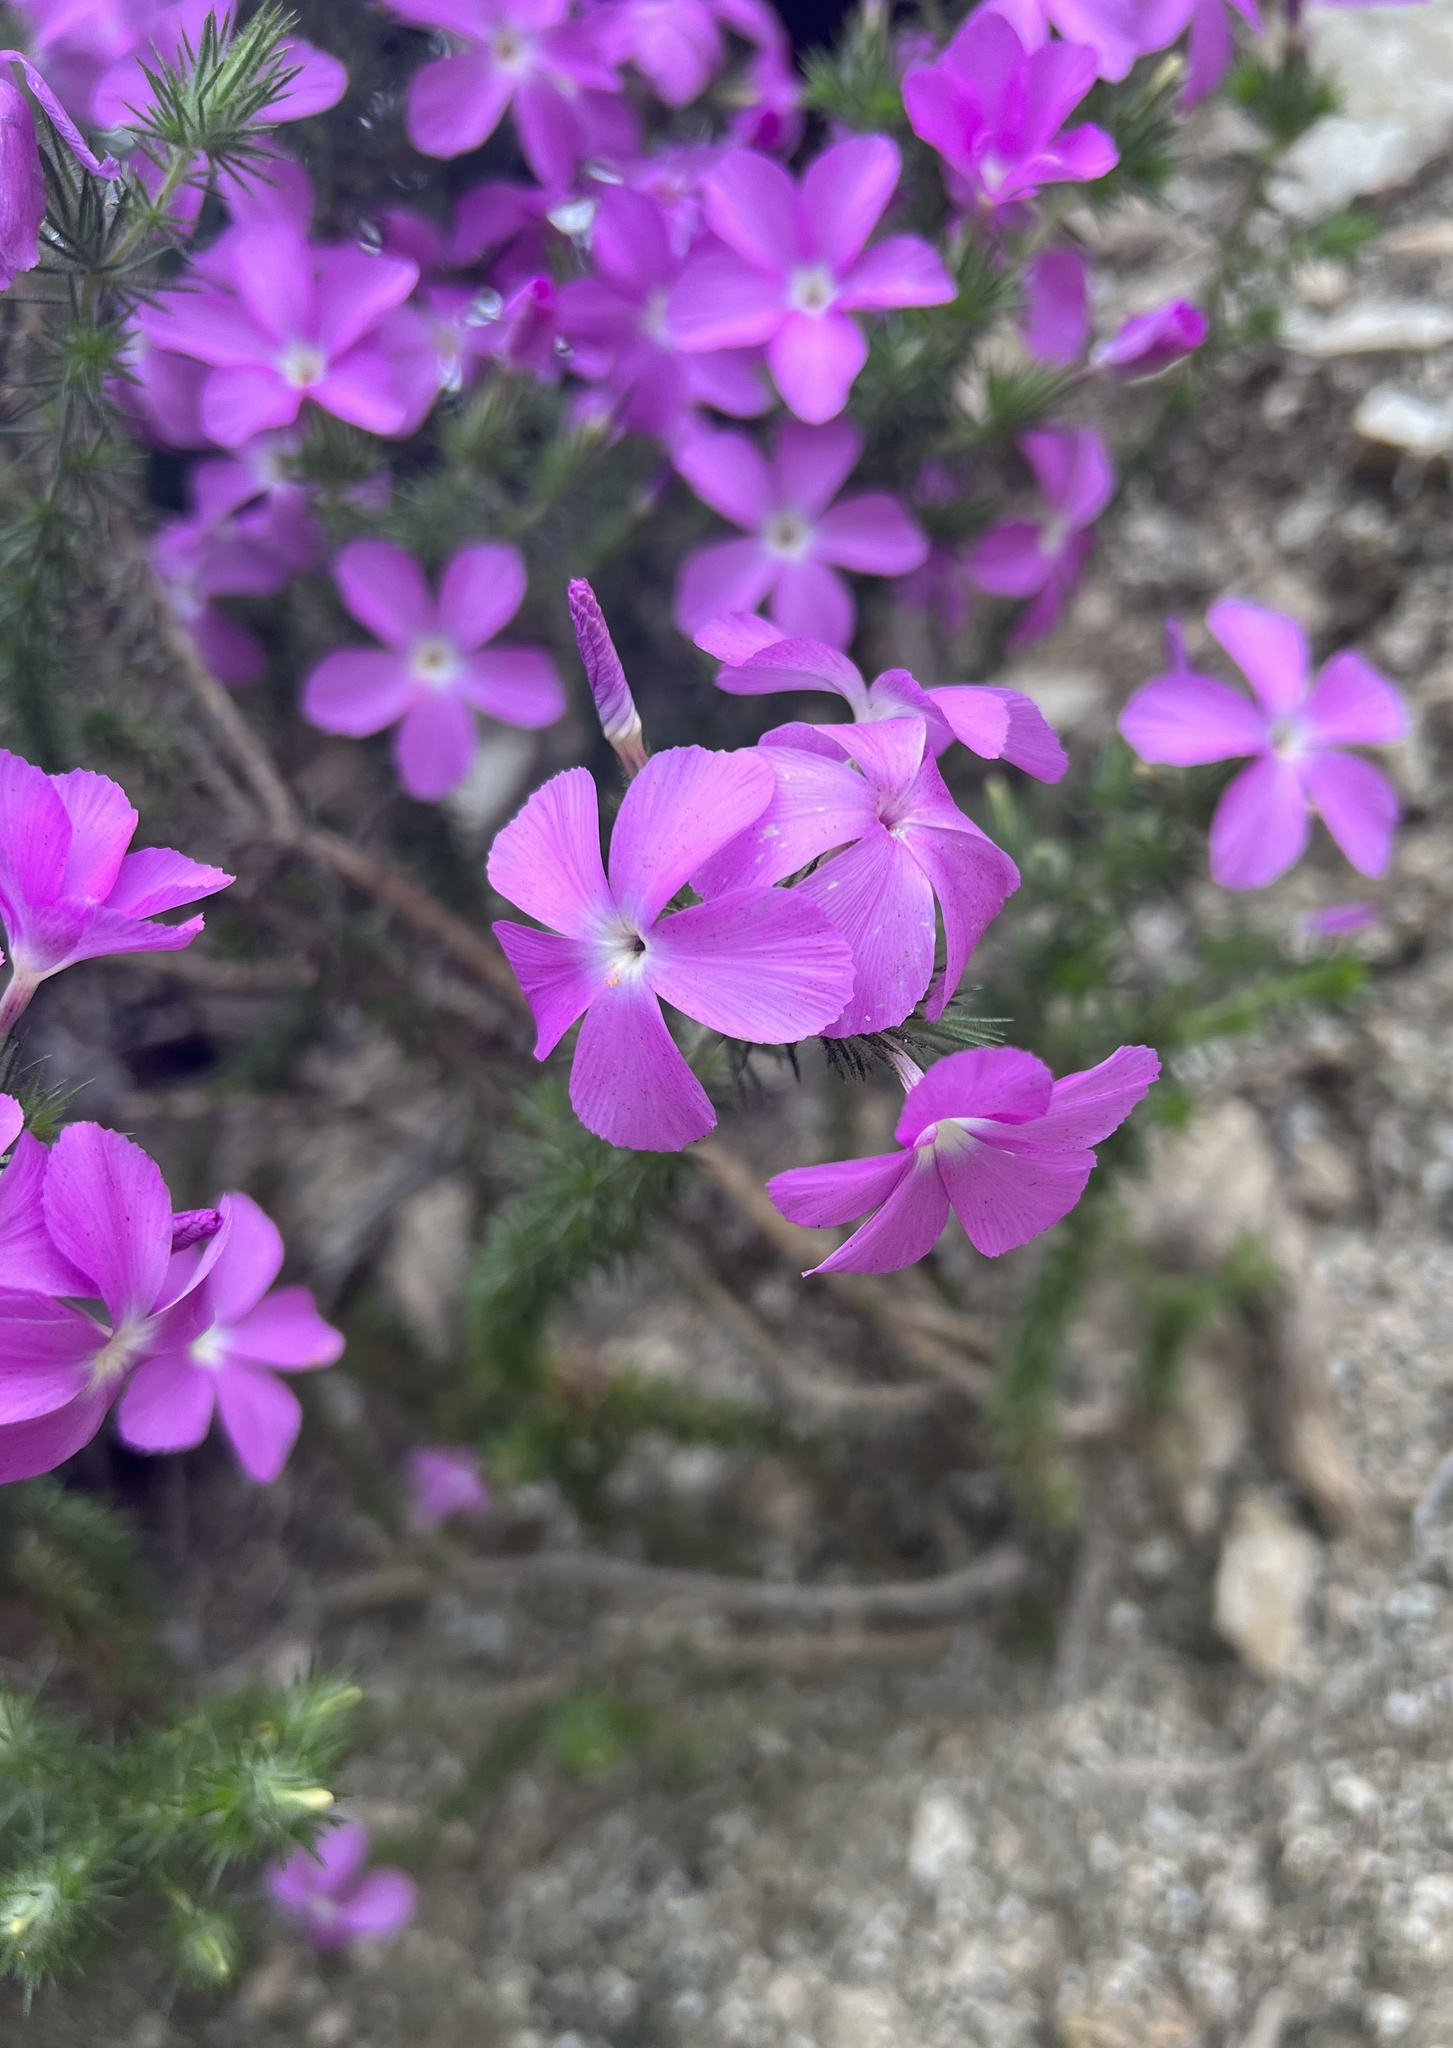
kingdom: Plantae
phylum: Tracheophyta
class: Magnoliopsida
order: Ericales
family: Polemoniaceae
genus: Linanthus
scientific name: Linanthus californicus
